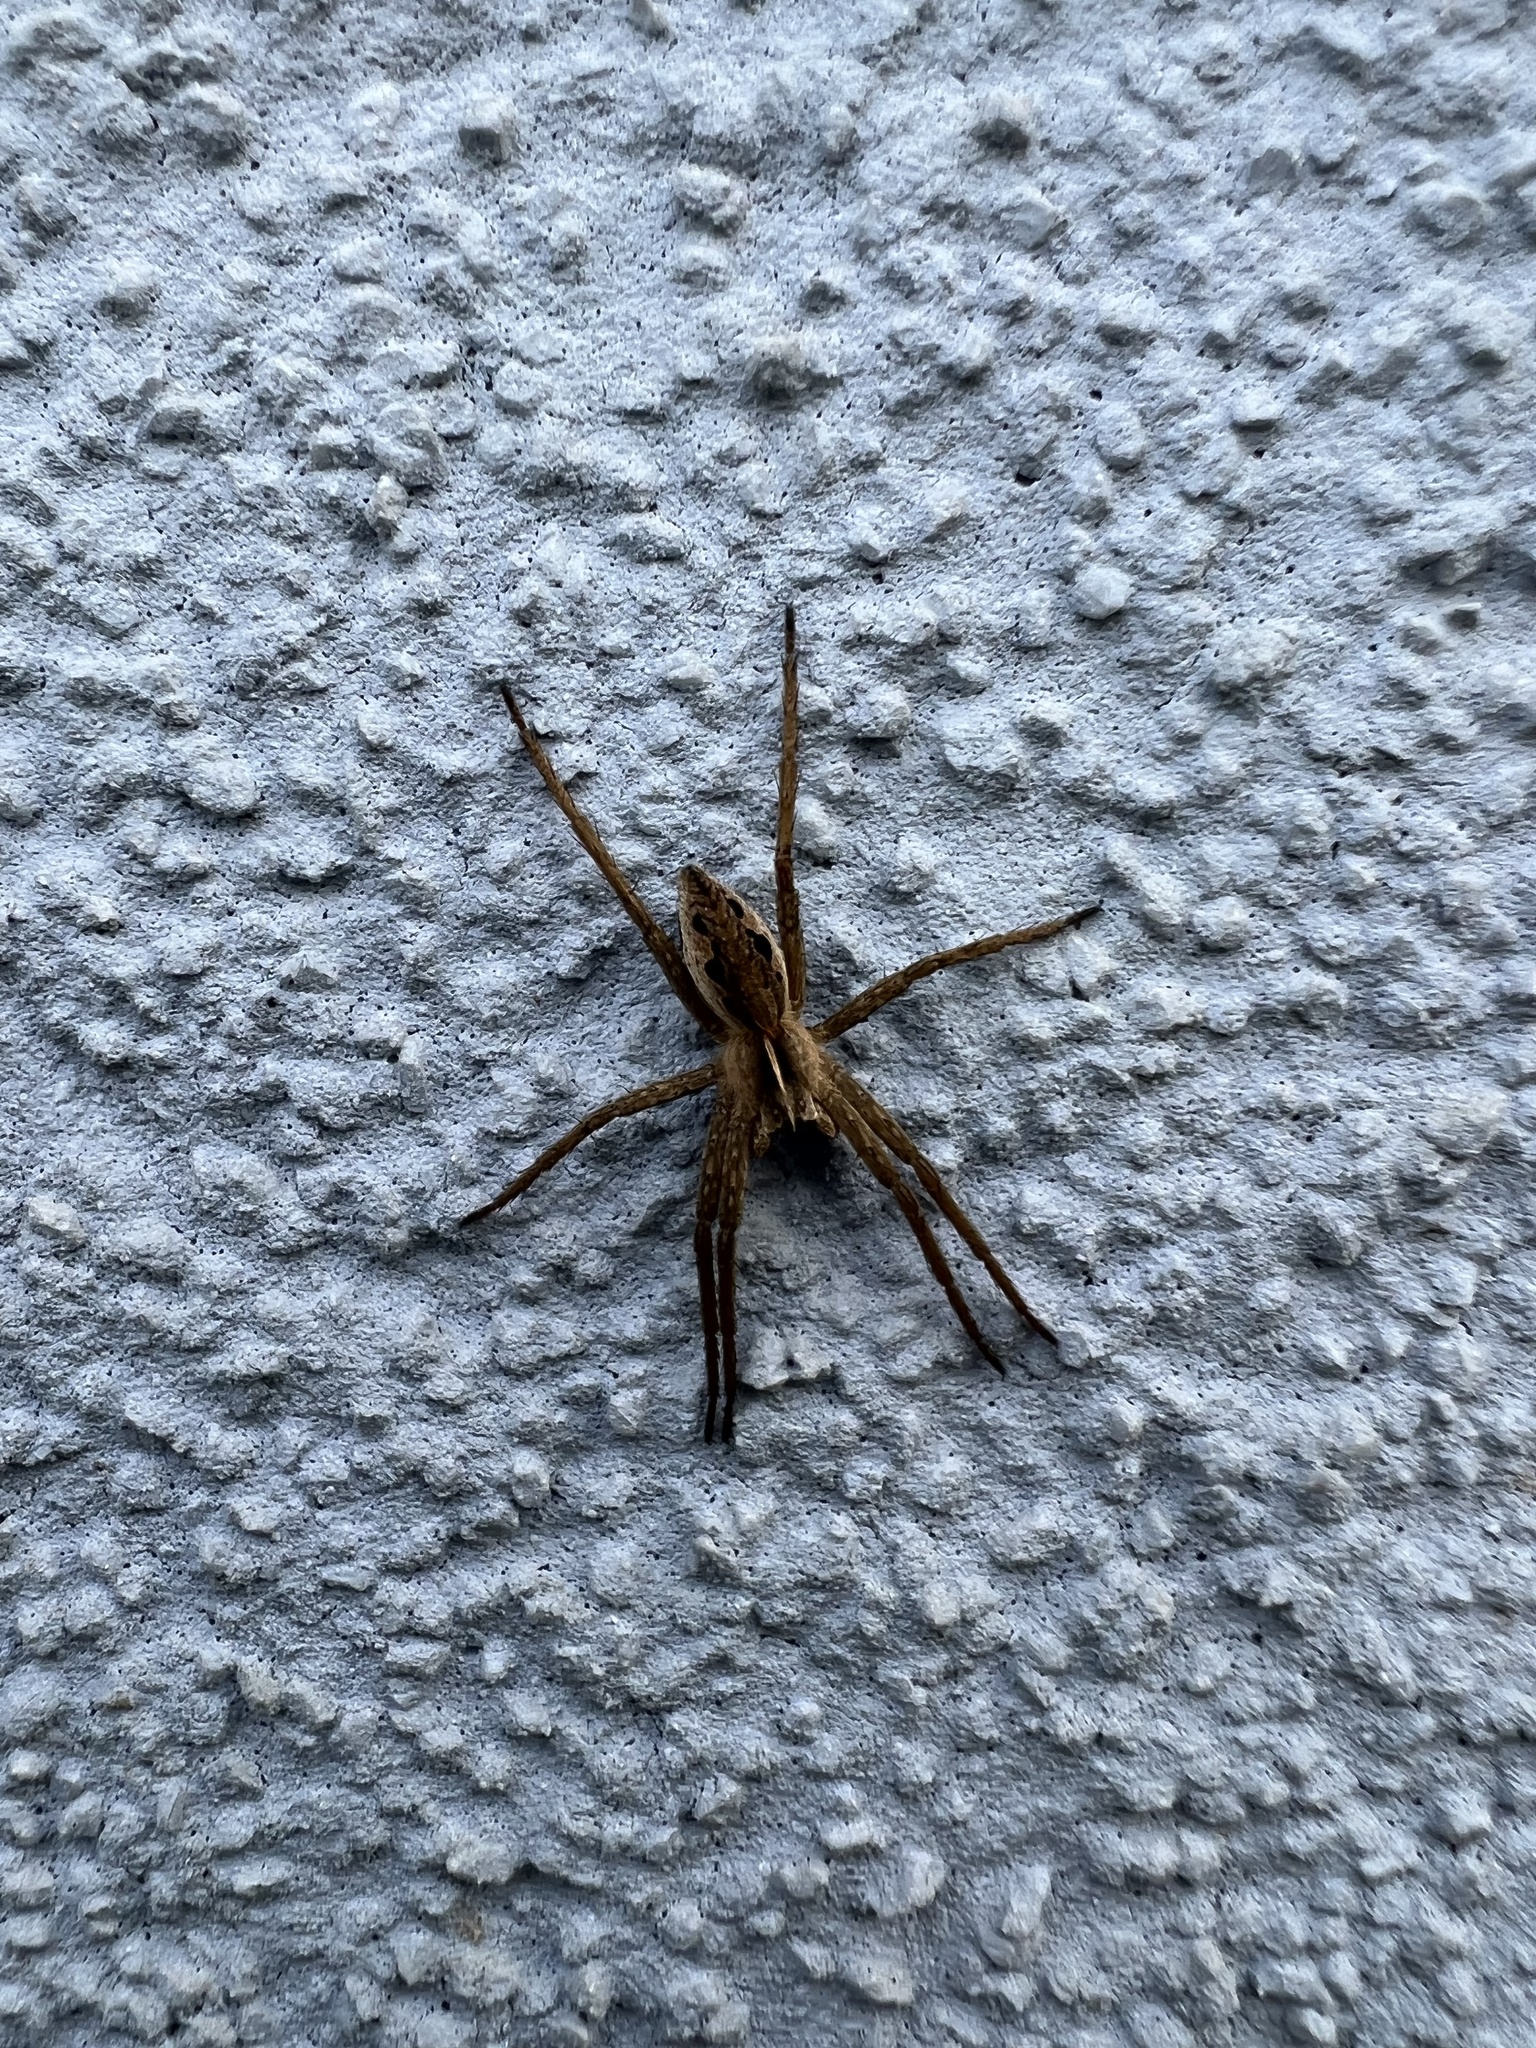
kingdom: Animalia
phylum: Arthropoda
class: Arachnida
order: Araneae
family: Pisauridae
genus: Pisaura
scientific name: Pisaura mirabilis
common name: Tent spider
